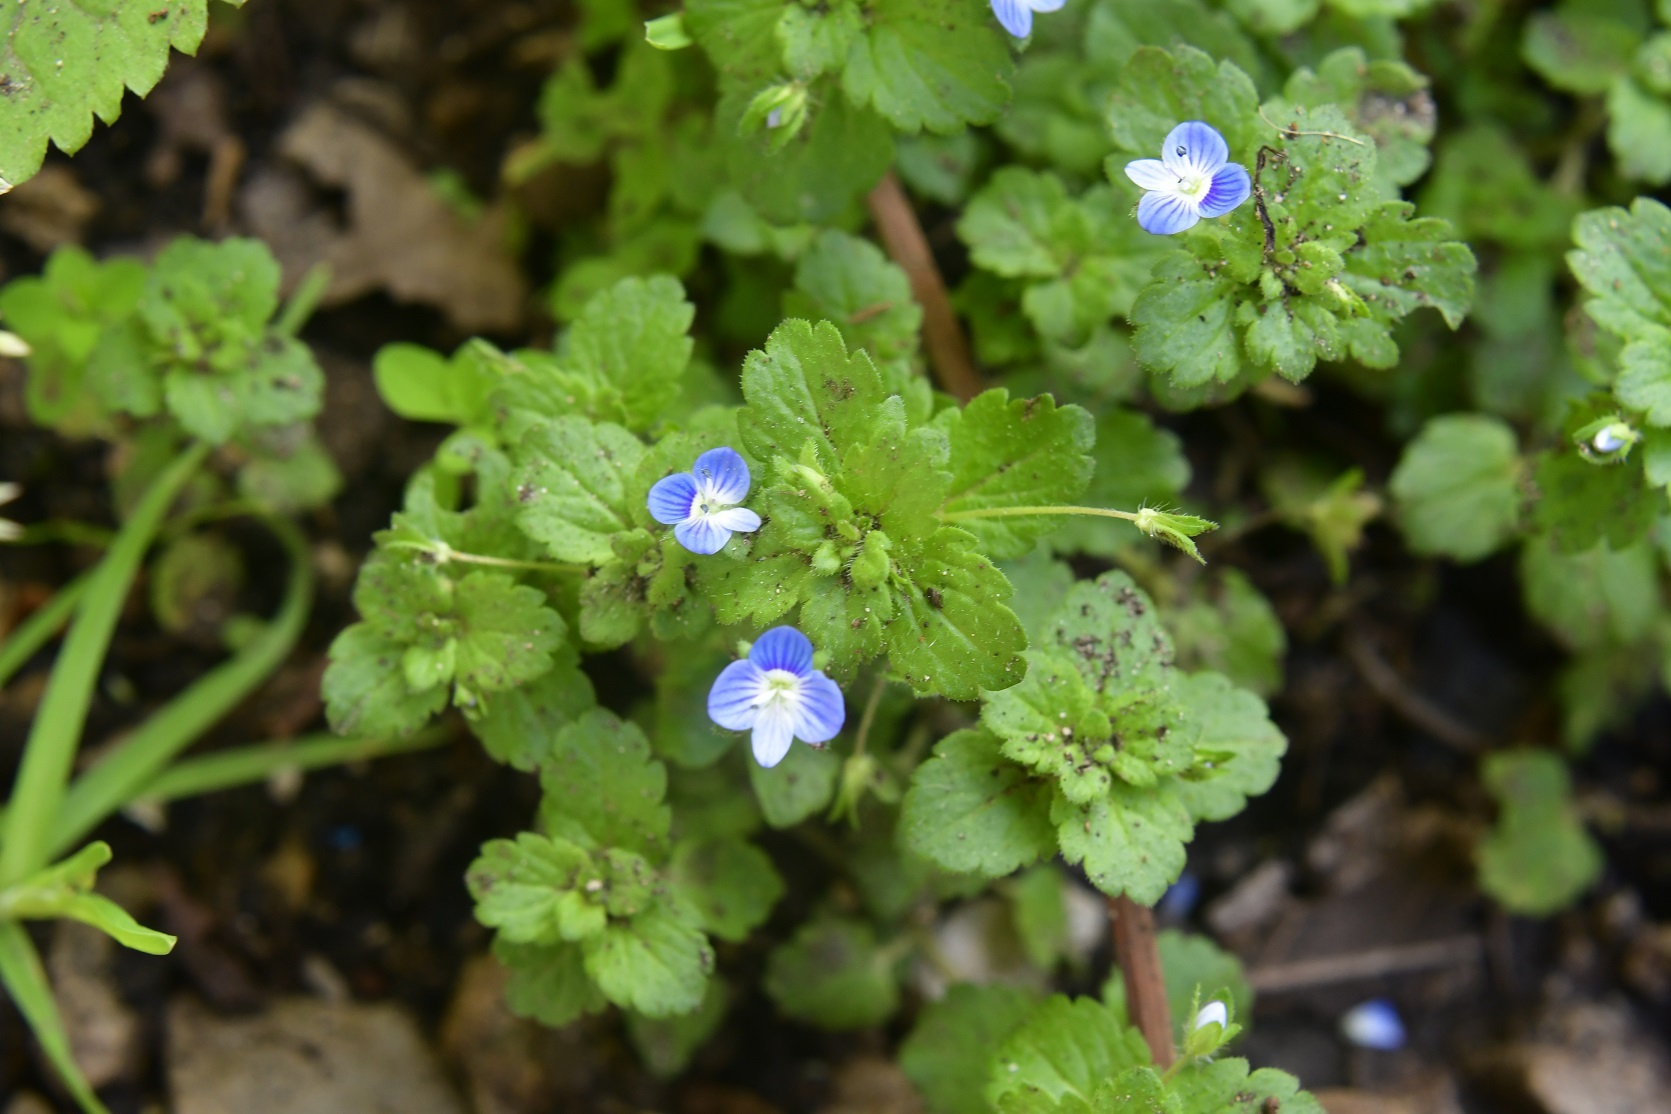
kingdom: Plantae
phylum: Tracheophyta
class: Magnoliopsida
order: Lamiales
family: Plantaginaceae
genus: Veronica
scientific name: Veronica persica
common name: Common field-speedwell
